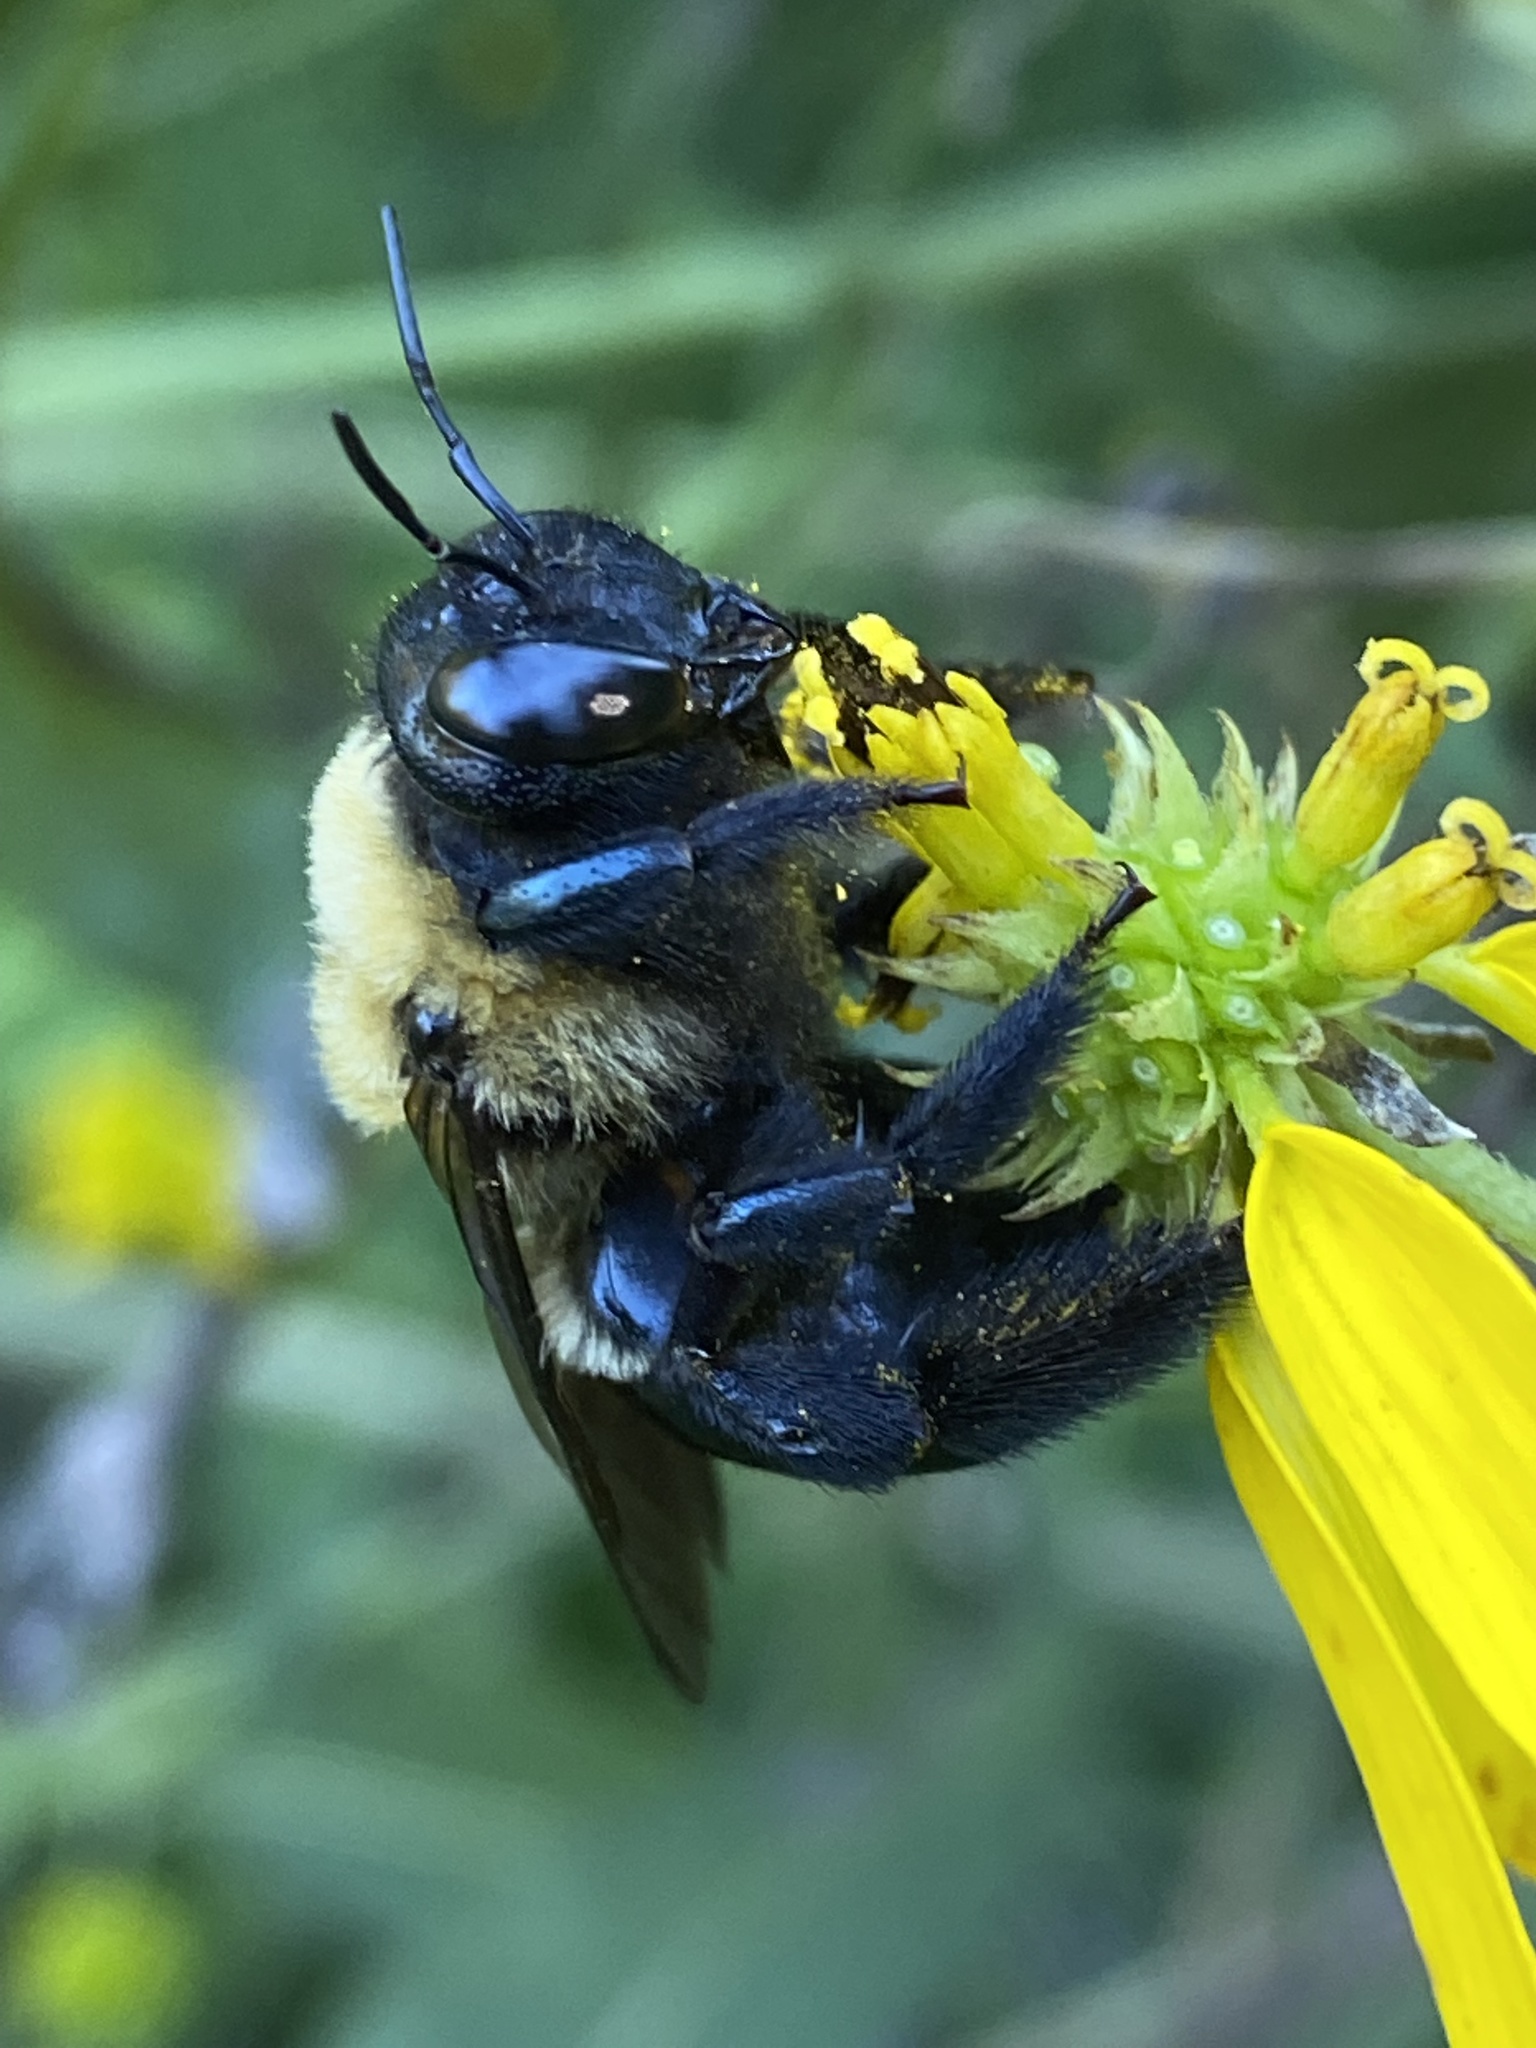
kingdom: Animalia
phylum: Arthropoda
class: Insecta
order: Hymenoptera
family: Apidae
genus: Xylocopa
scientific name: Xylocopa virginica
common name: Carpenter bee
